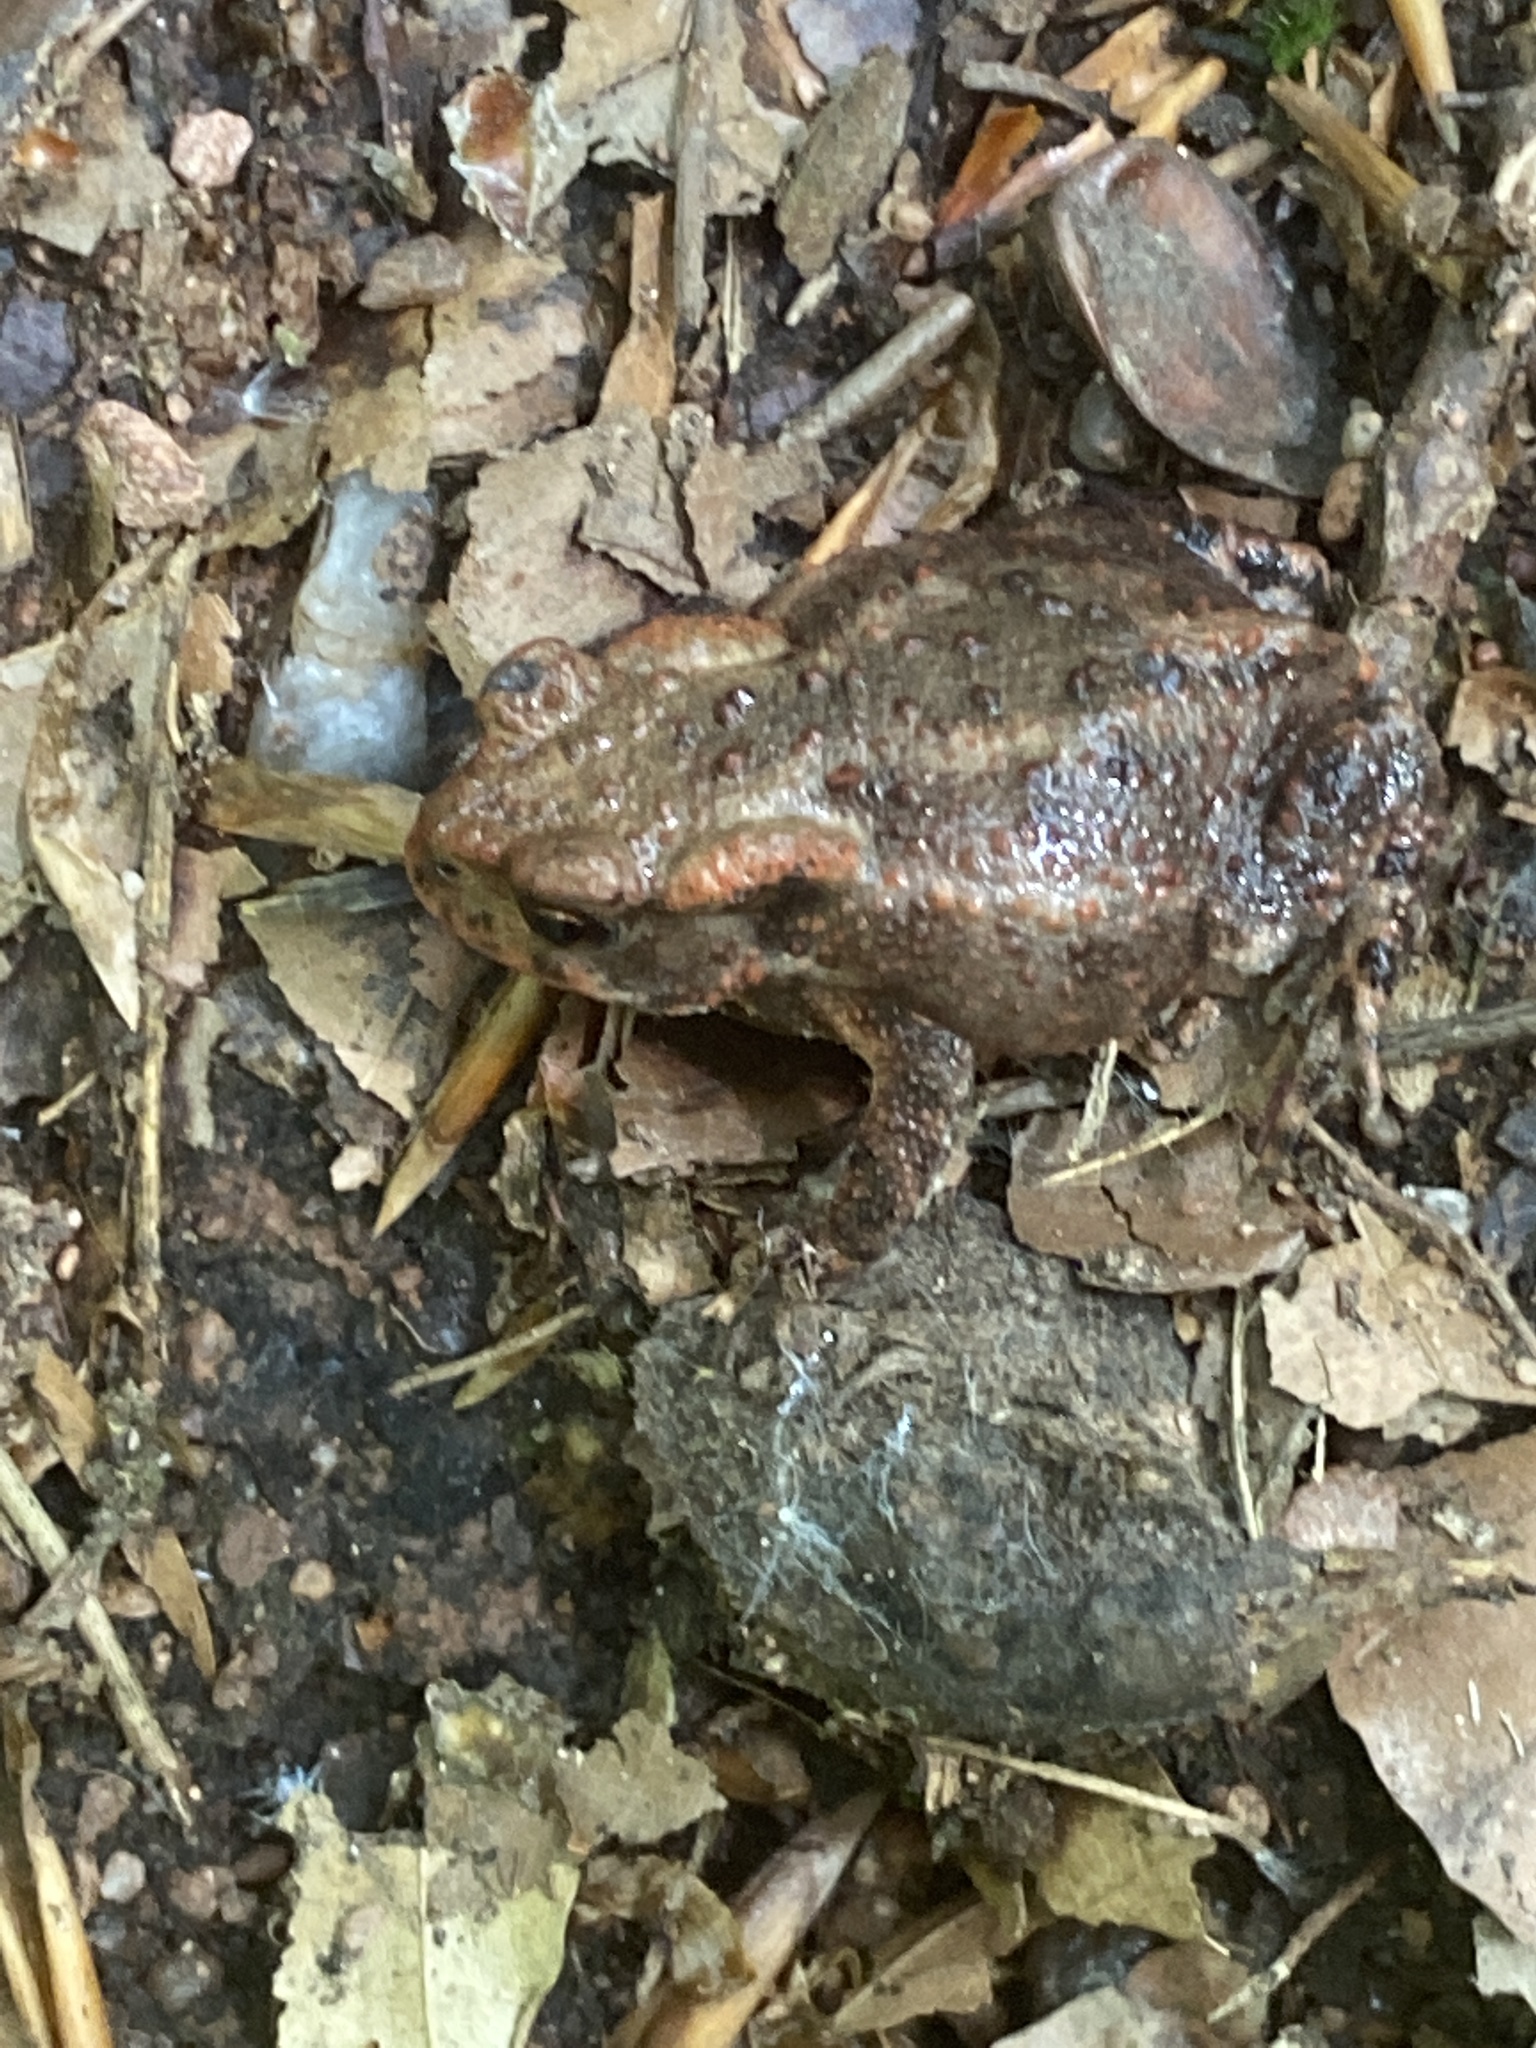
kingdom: Animalia
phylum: Chordata
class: Amphibia
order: Anura
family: Bufonidae
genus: Bufo
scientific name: Bufo bufo
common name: Common toad
